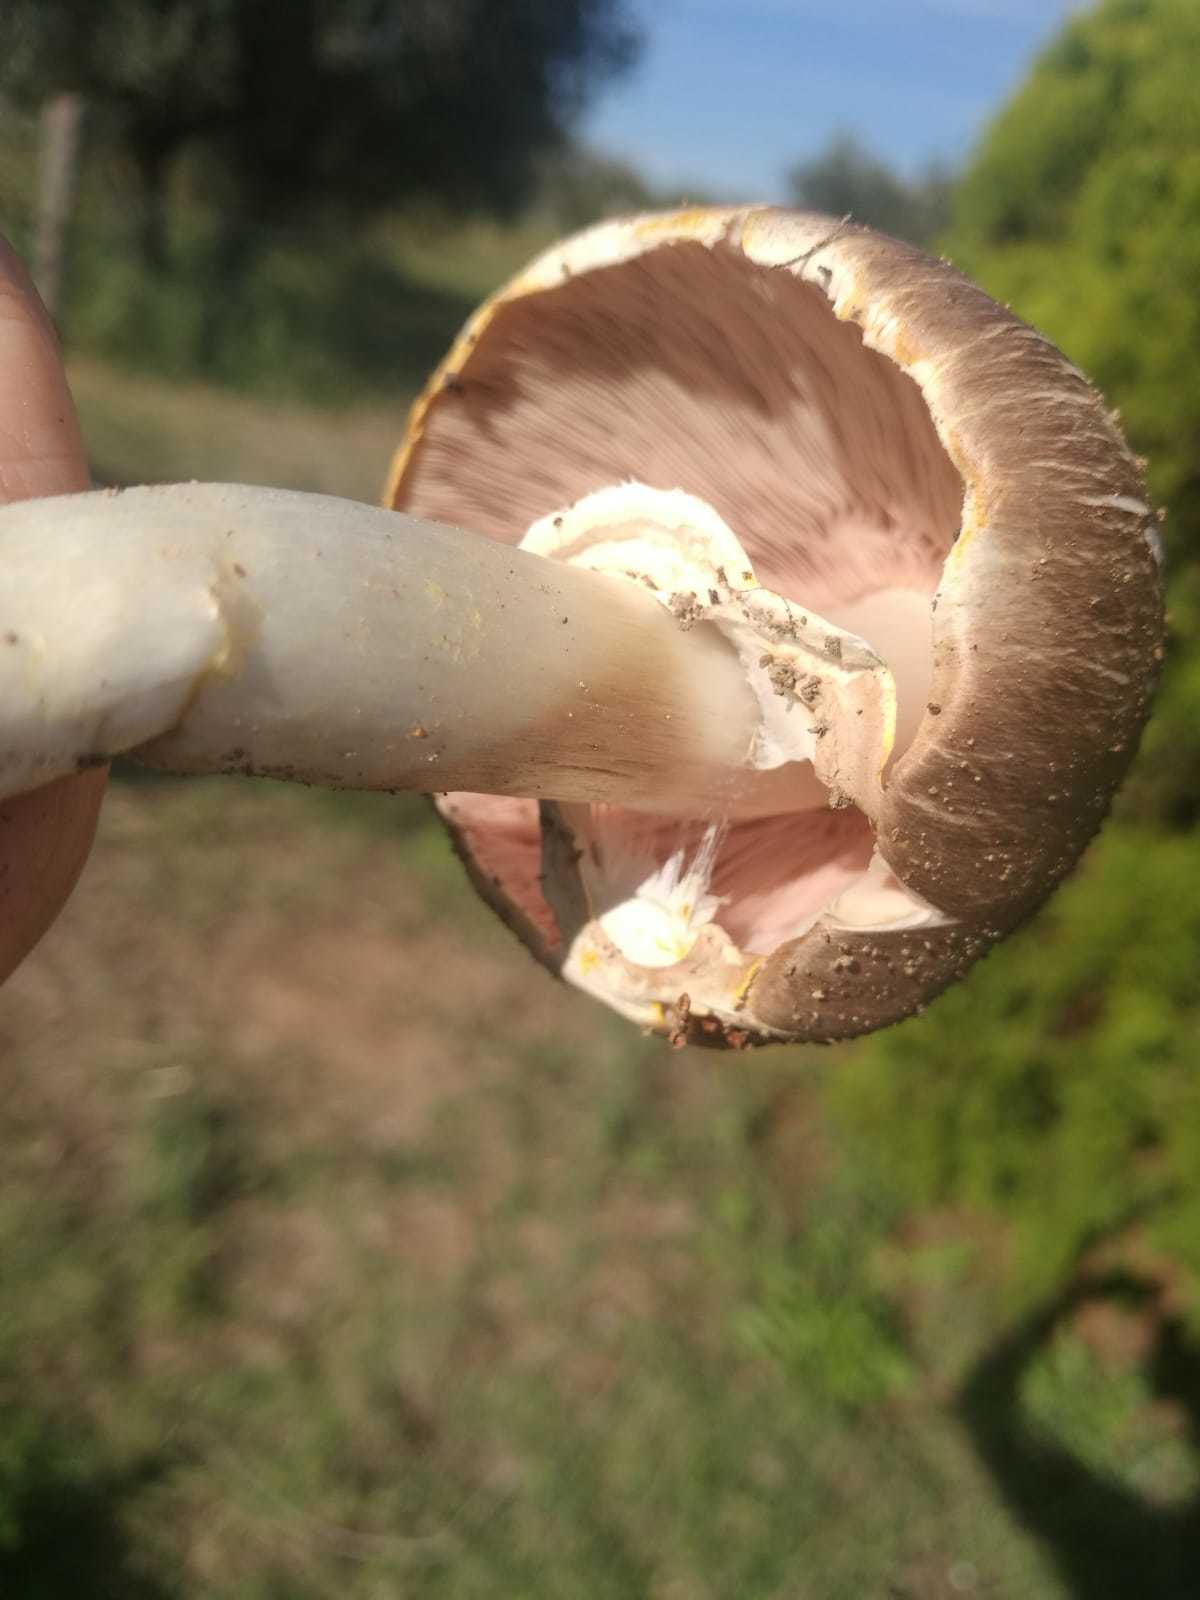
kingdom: Fungi
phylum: Basidiomycota
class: Agaricomycetes
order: Agaricales
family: Agaricaceae
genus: Agaricus
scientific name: Agaricus moelleri
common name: Inky mushroom
